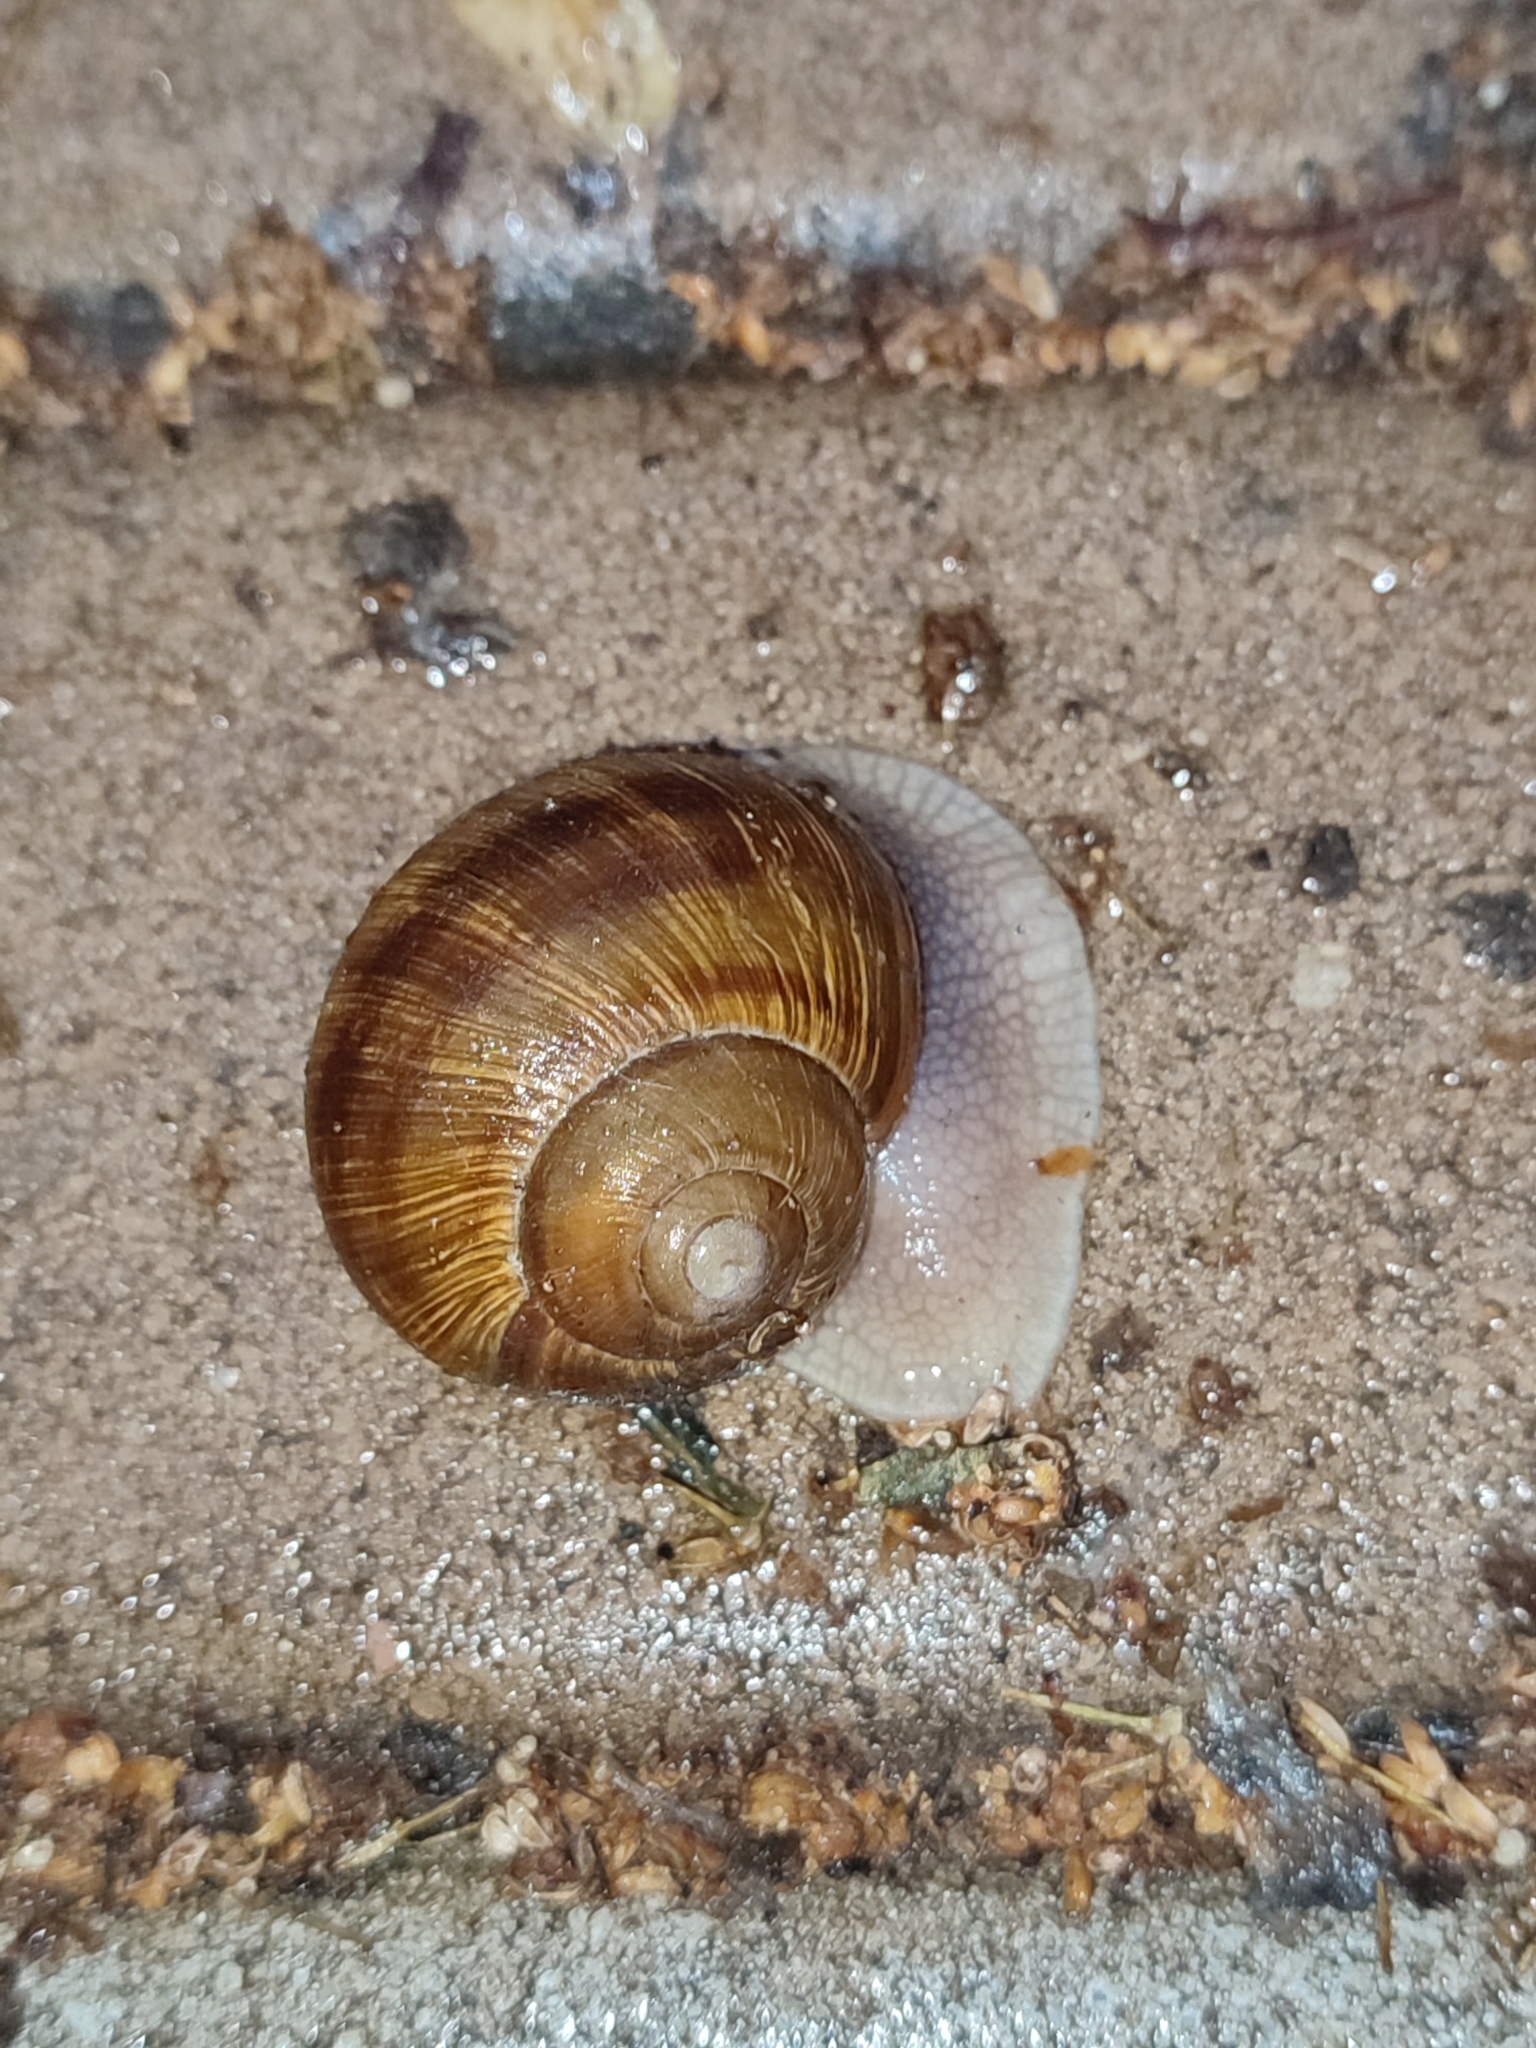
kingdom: Animalia
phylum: Mollusca
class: Gastropoda
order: Stylommatophora
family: Helicidae
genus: Helix
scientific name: Helix pomatia
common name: Roman snail
